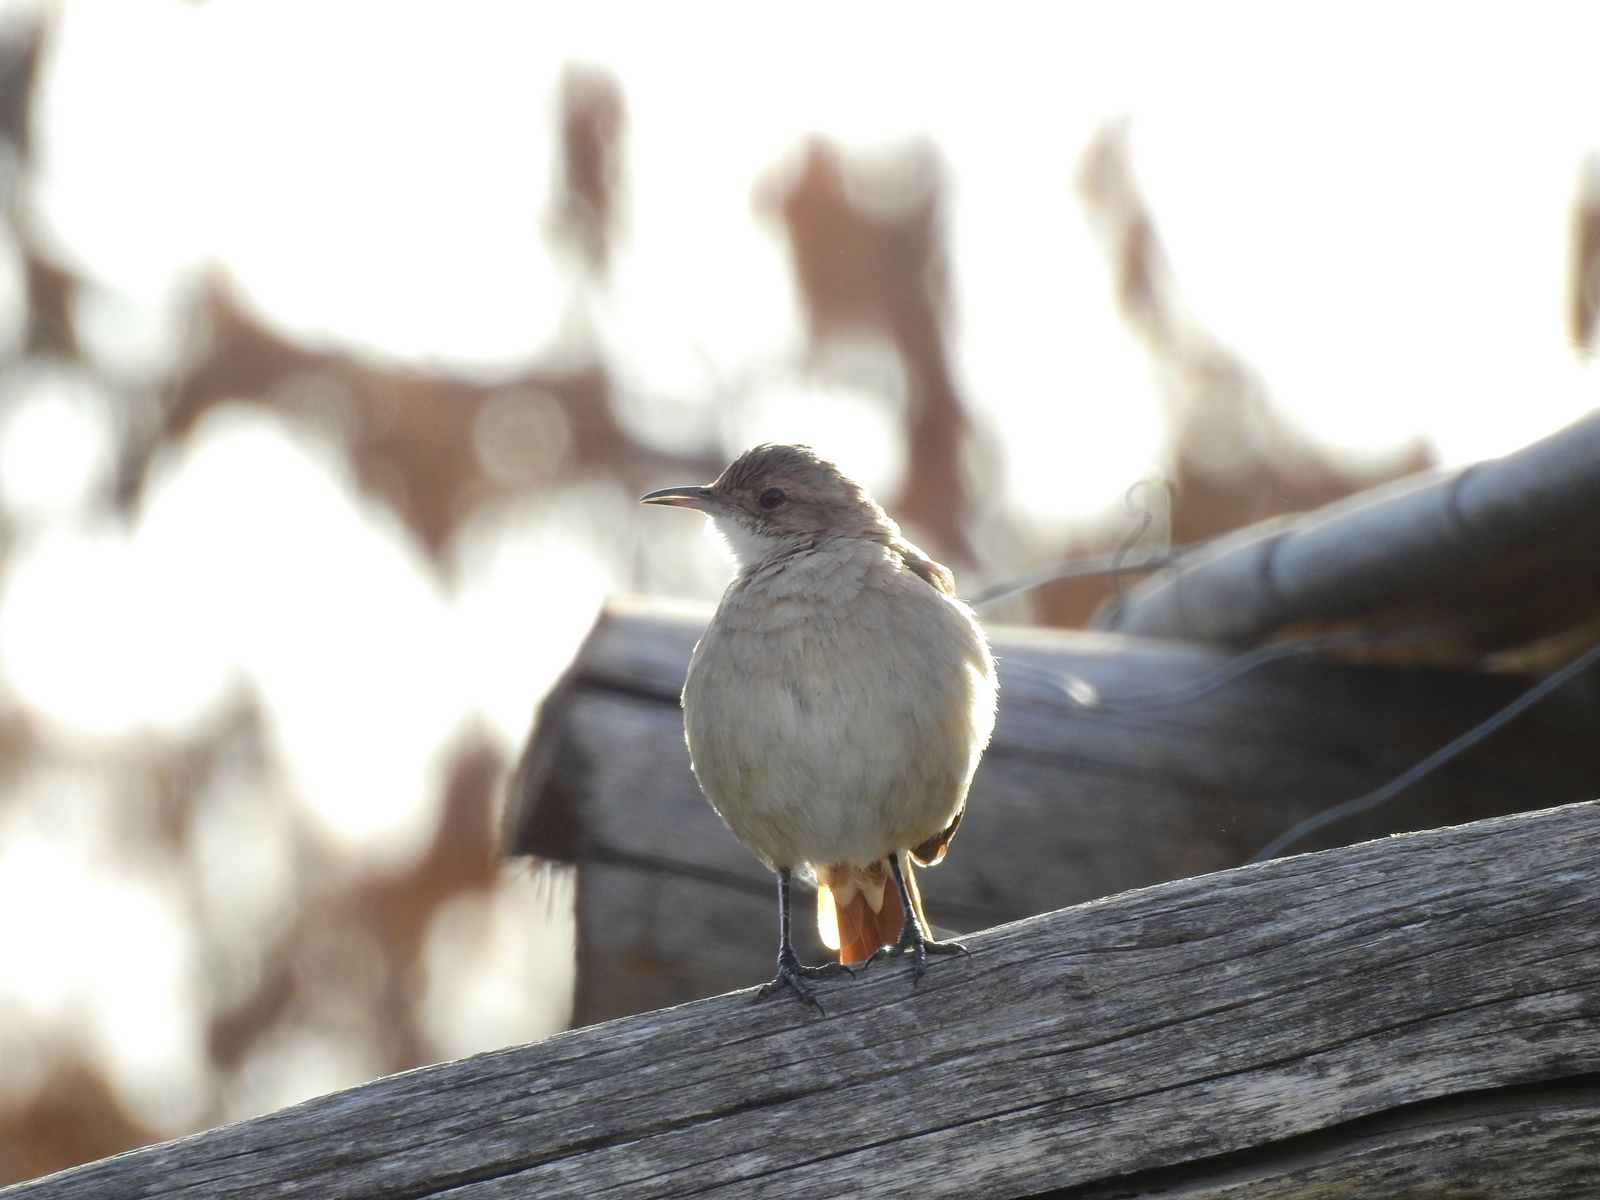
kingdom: Animalia
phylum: Chordata
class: Aves
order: Passeriformes
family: Furnariidae
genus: Furnarius
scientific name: Furnarius rufus
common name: Rufous hornero
